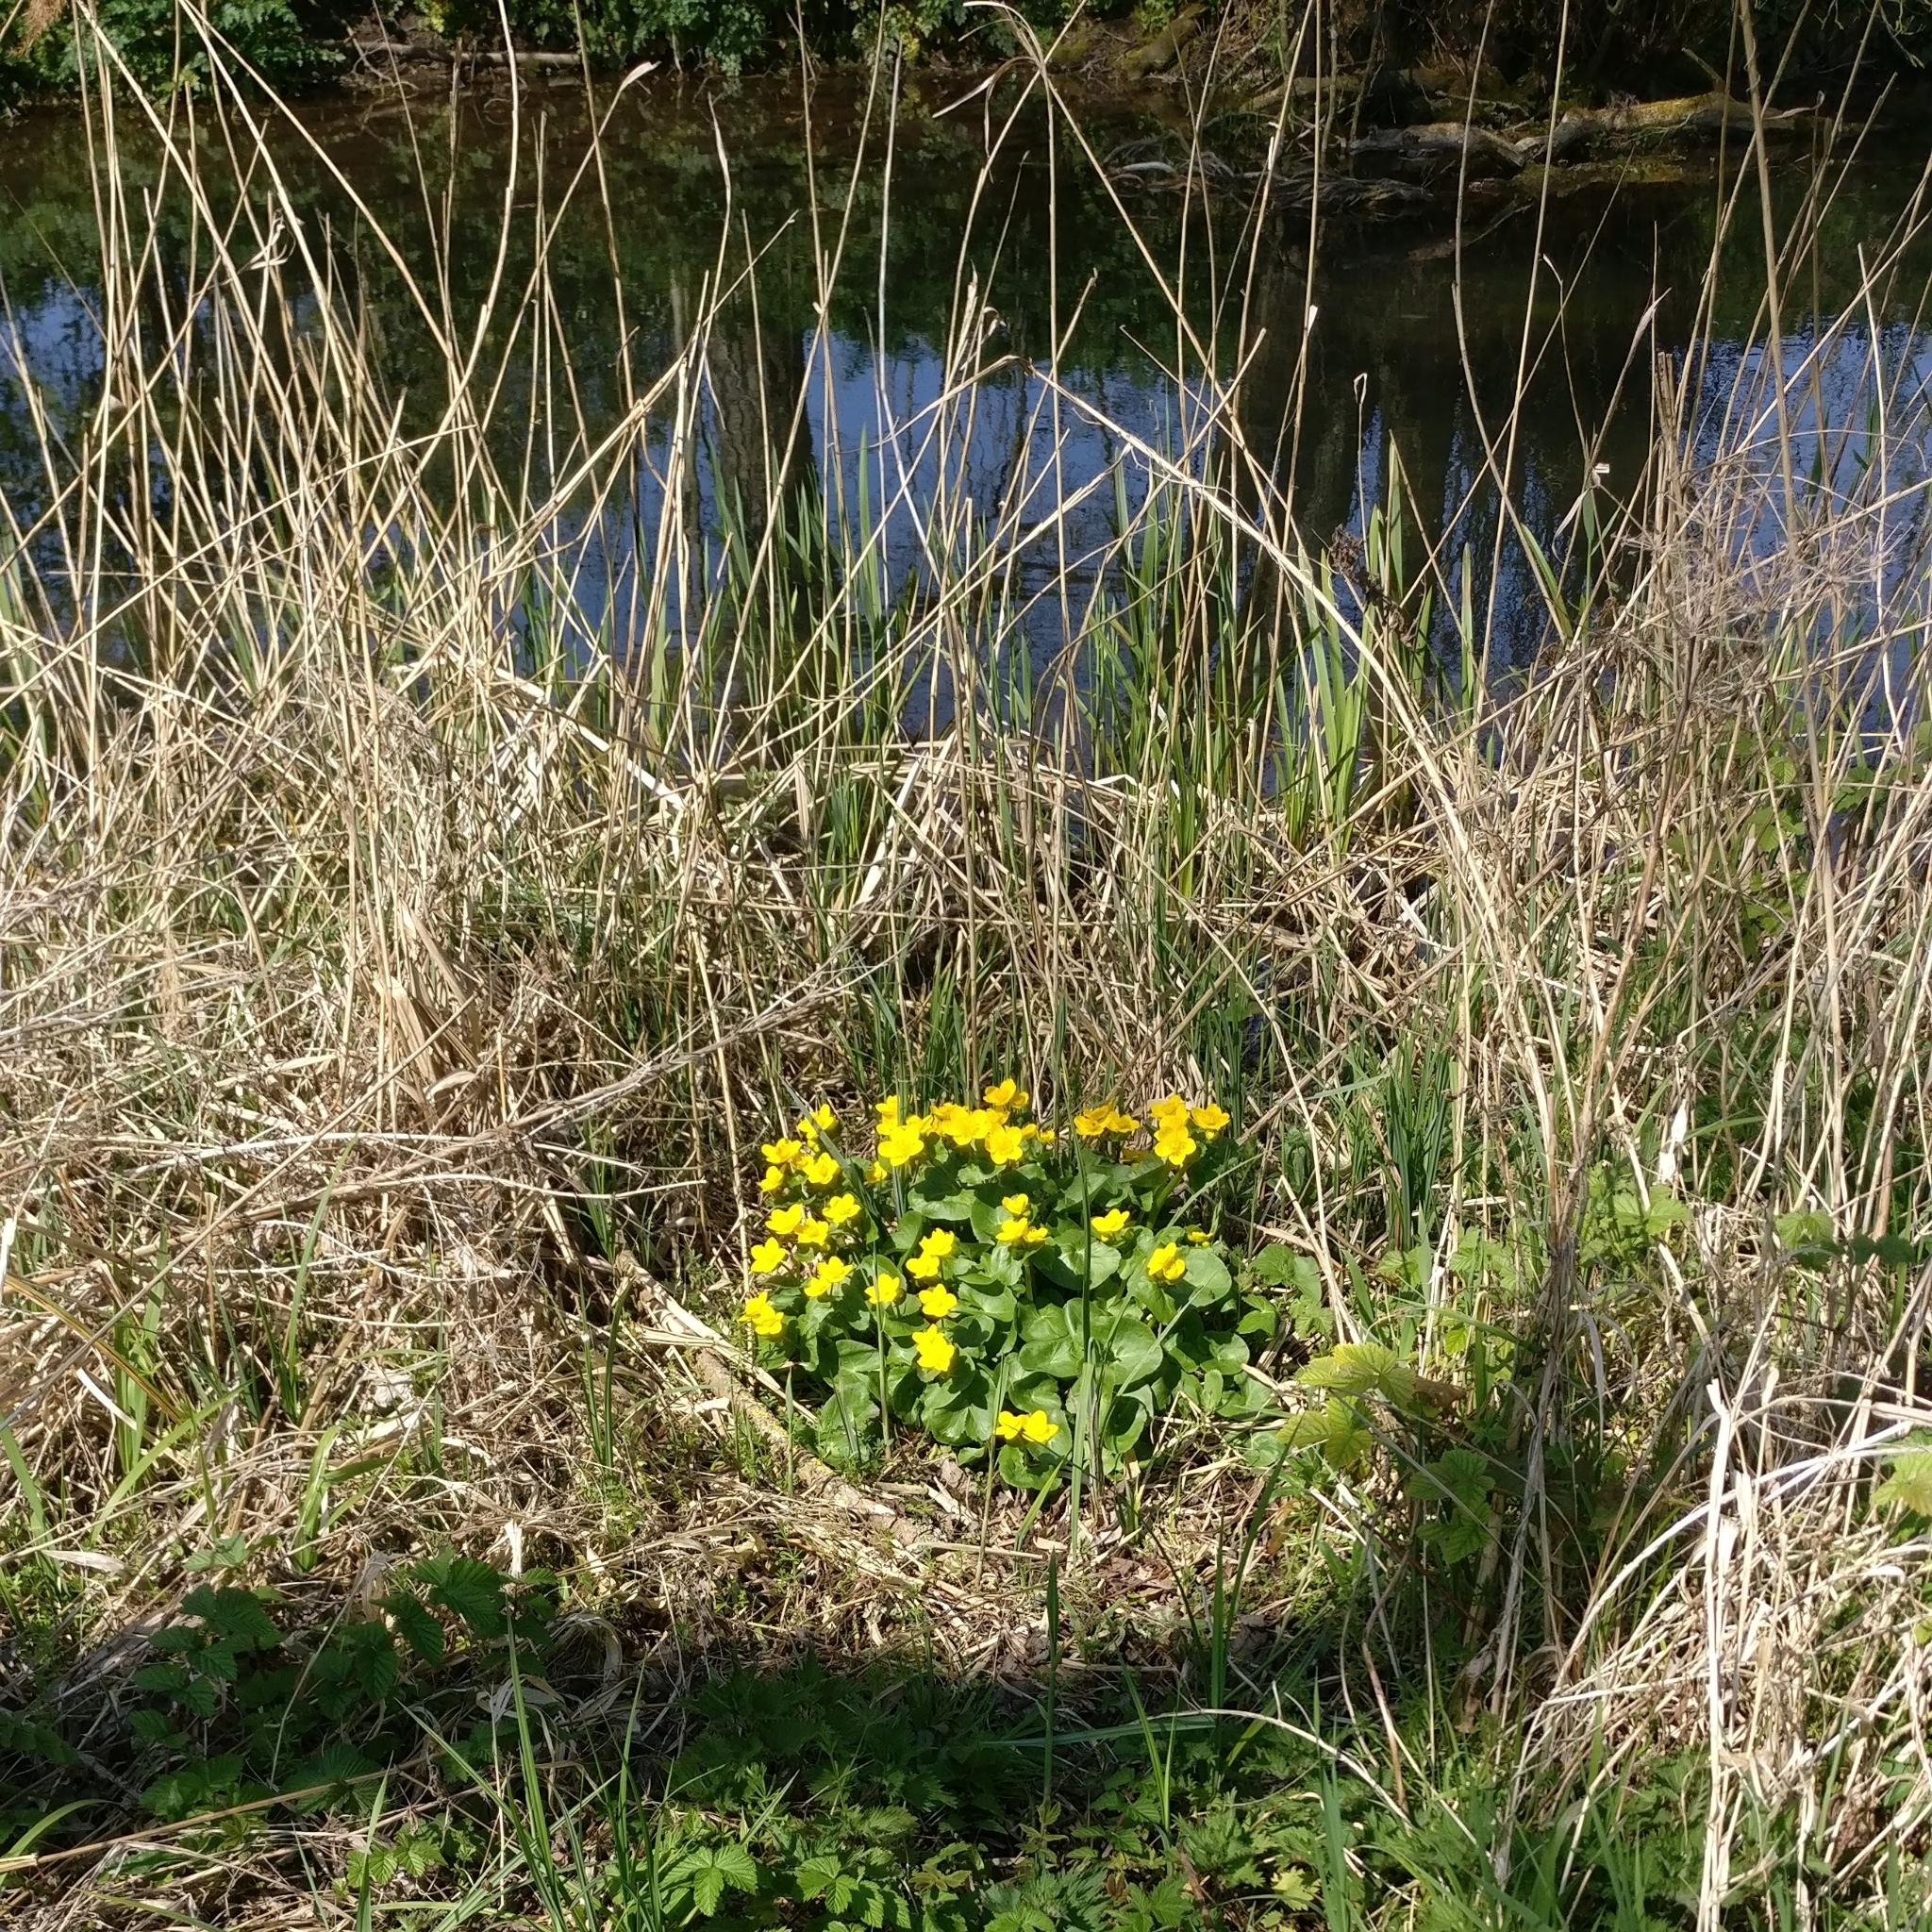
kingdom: Plantae
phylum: Tracheophyta
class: Magnoliopsida
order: Ranunculales
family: Ranunculaceae
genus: Caltha
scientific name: Caltha palustris
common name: Marsh marigold
